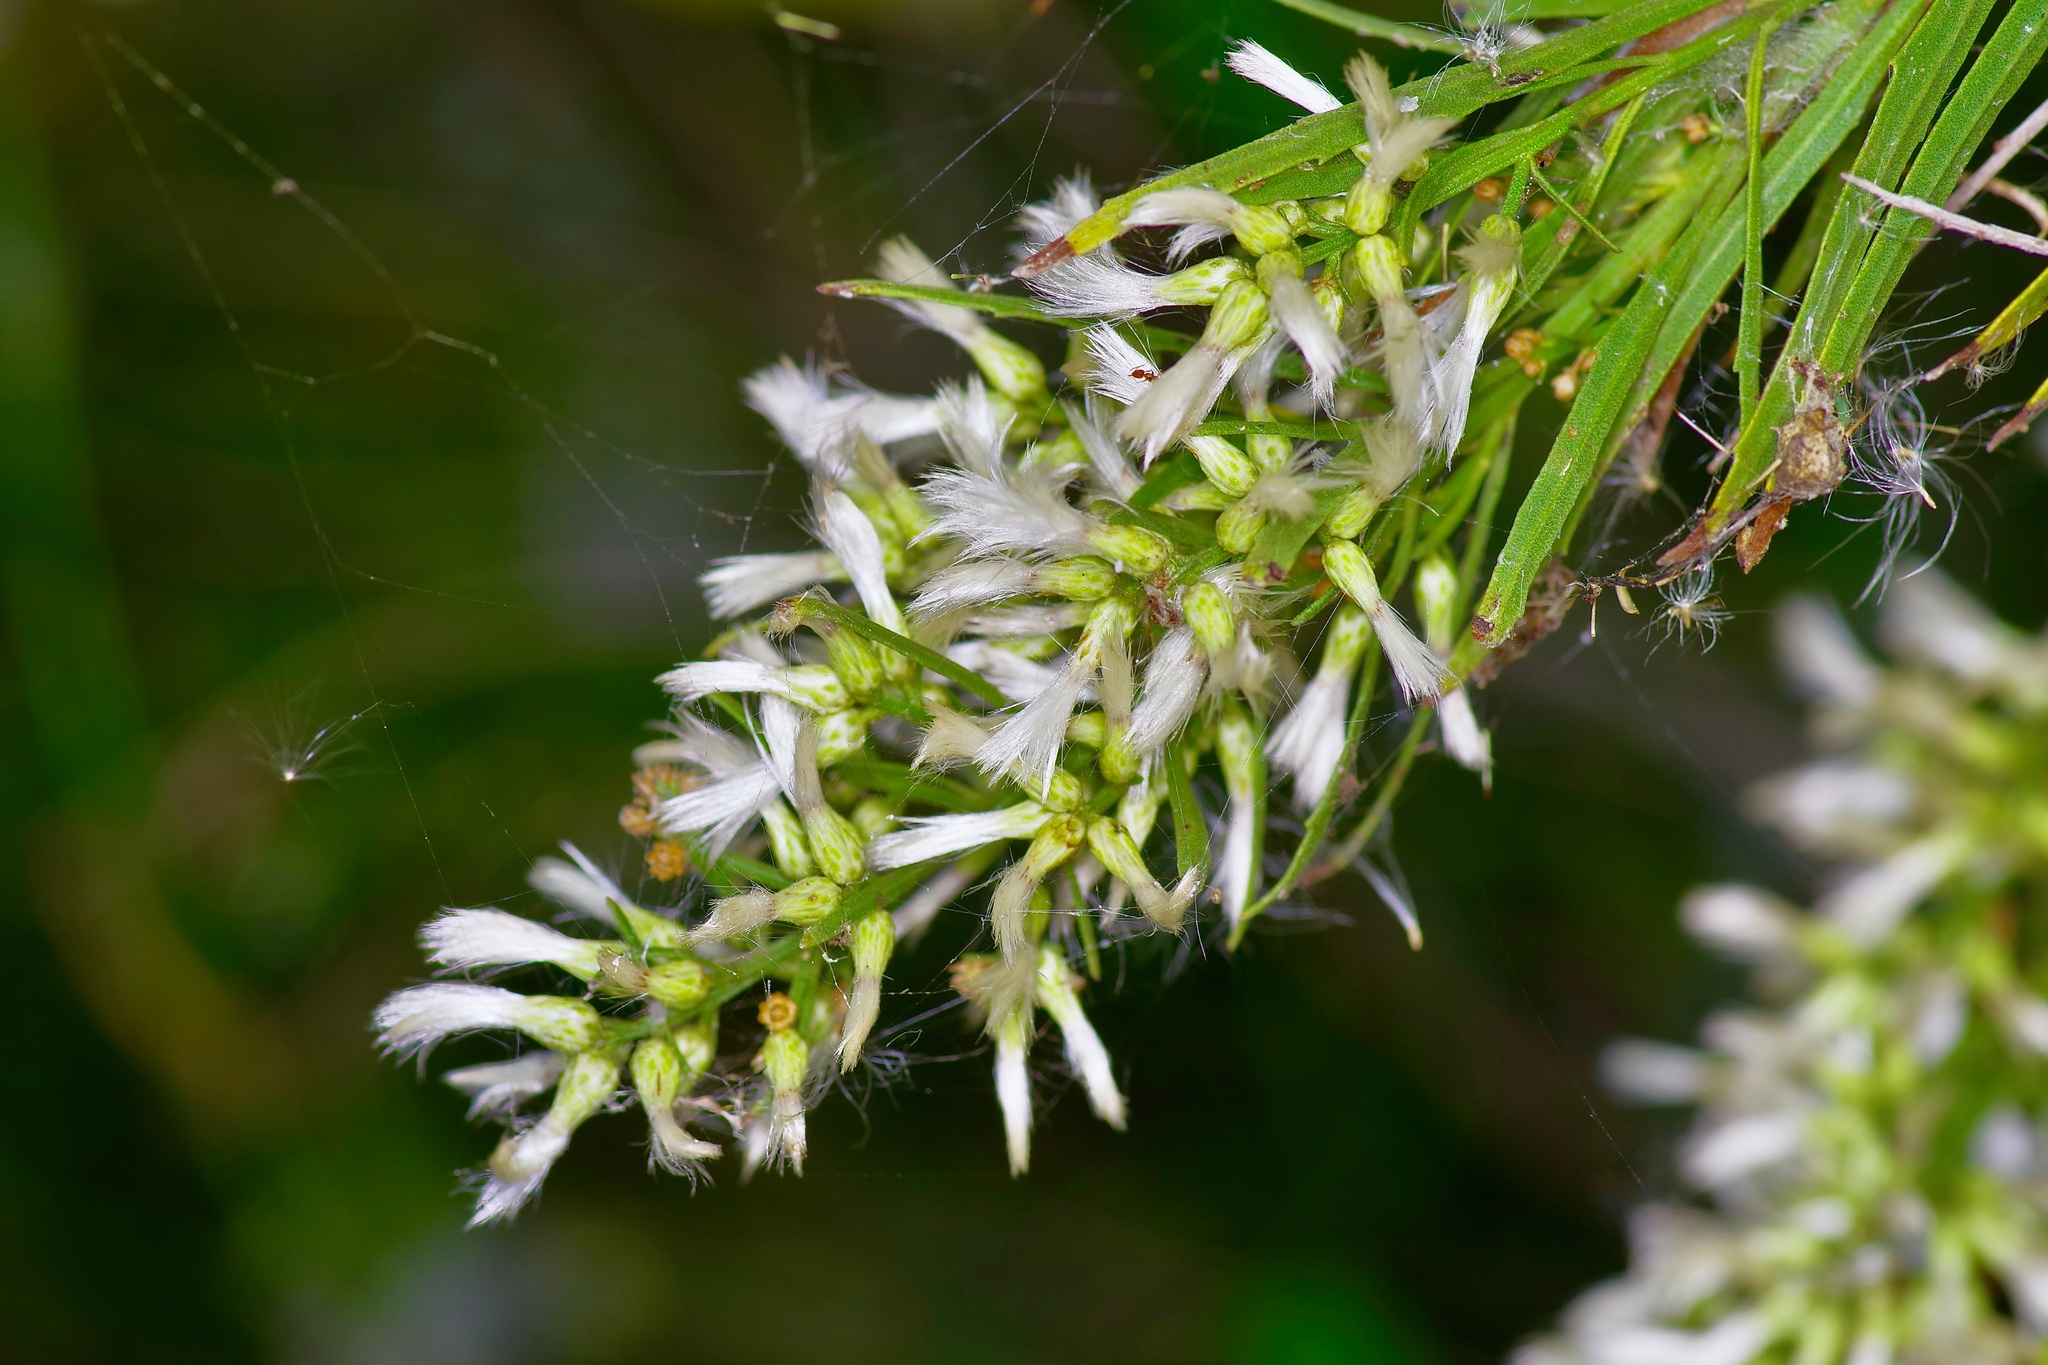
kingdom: Plantae
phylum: Tracheophyta
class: Magnoliopsida
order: Asterales
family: Asteraceae
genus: Baccharis
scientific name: Baccharis neglecta
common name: Roosevelt-weed
